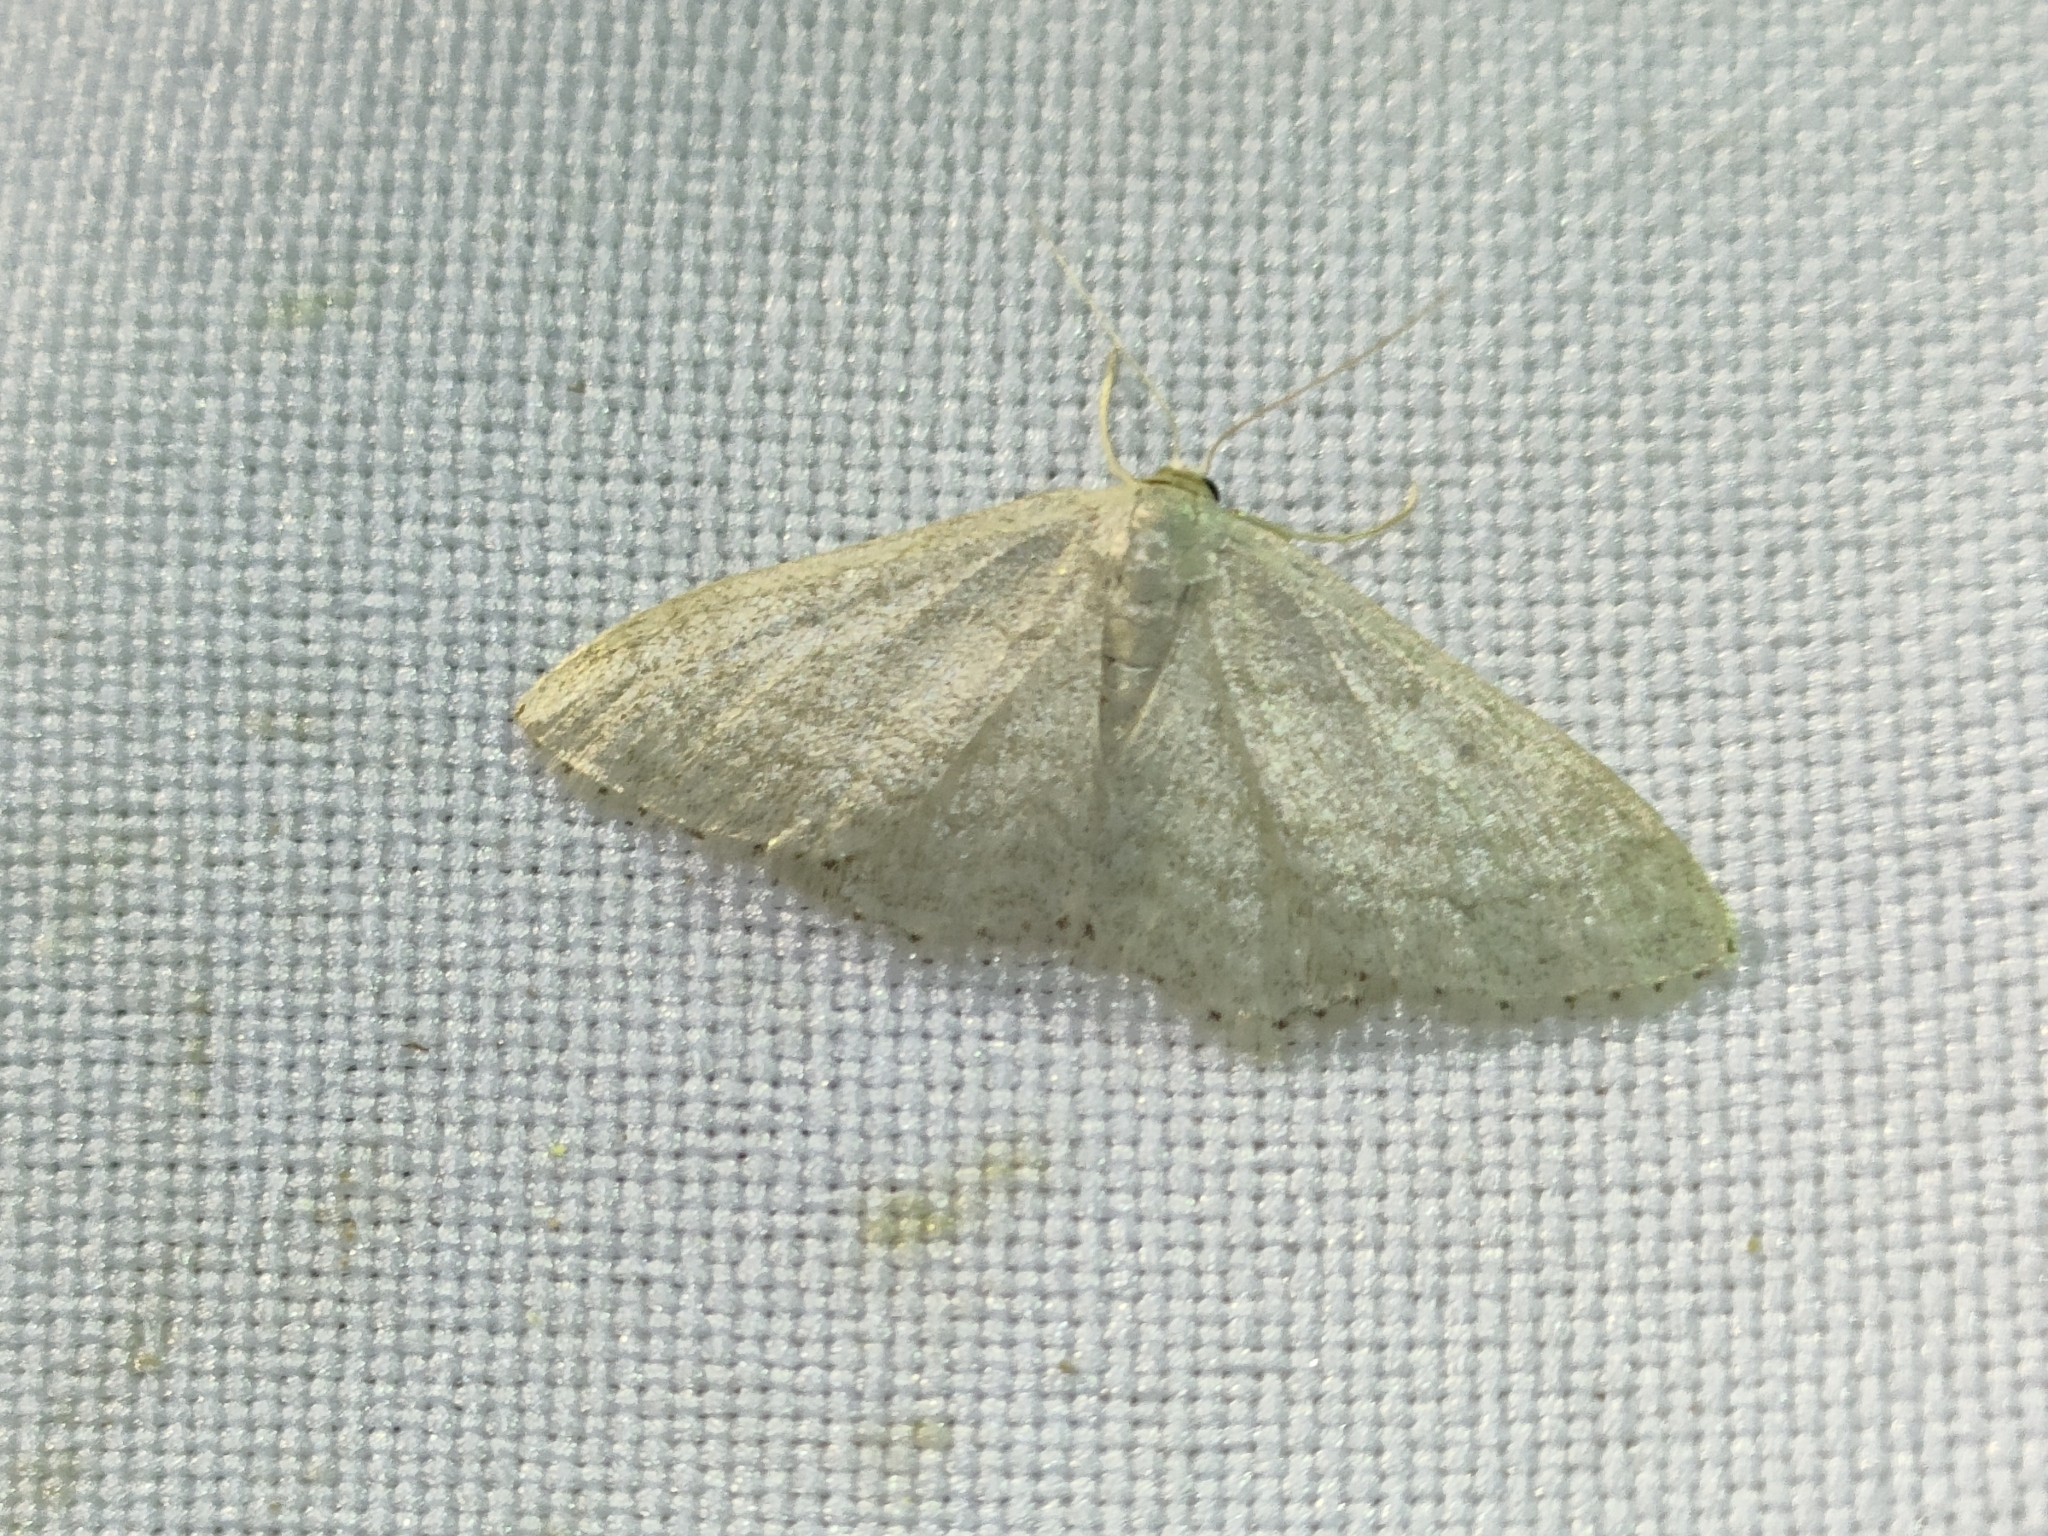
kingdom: Animalia
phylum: Arthropoda
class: Insecta
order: Lepidoptera
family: Geometridae
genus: Idaea
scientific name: Idaea subsericeata
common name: Satin wave
